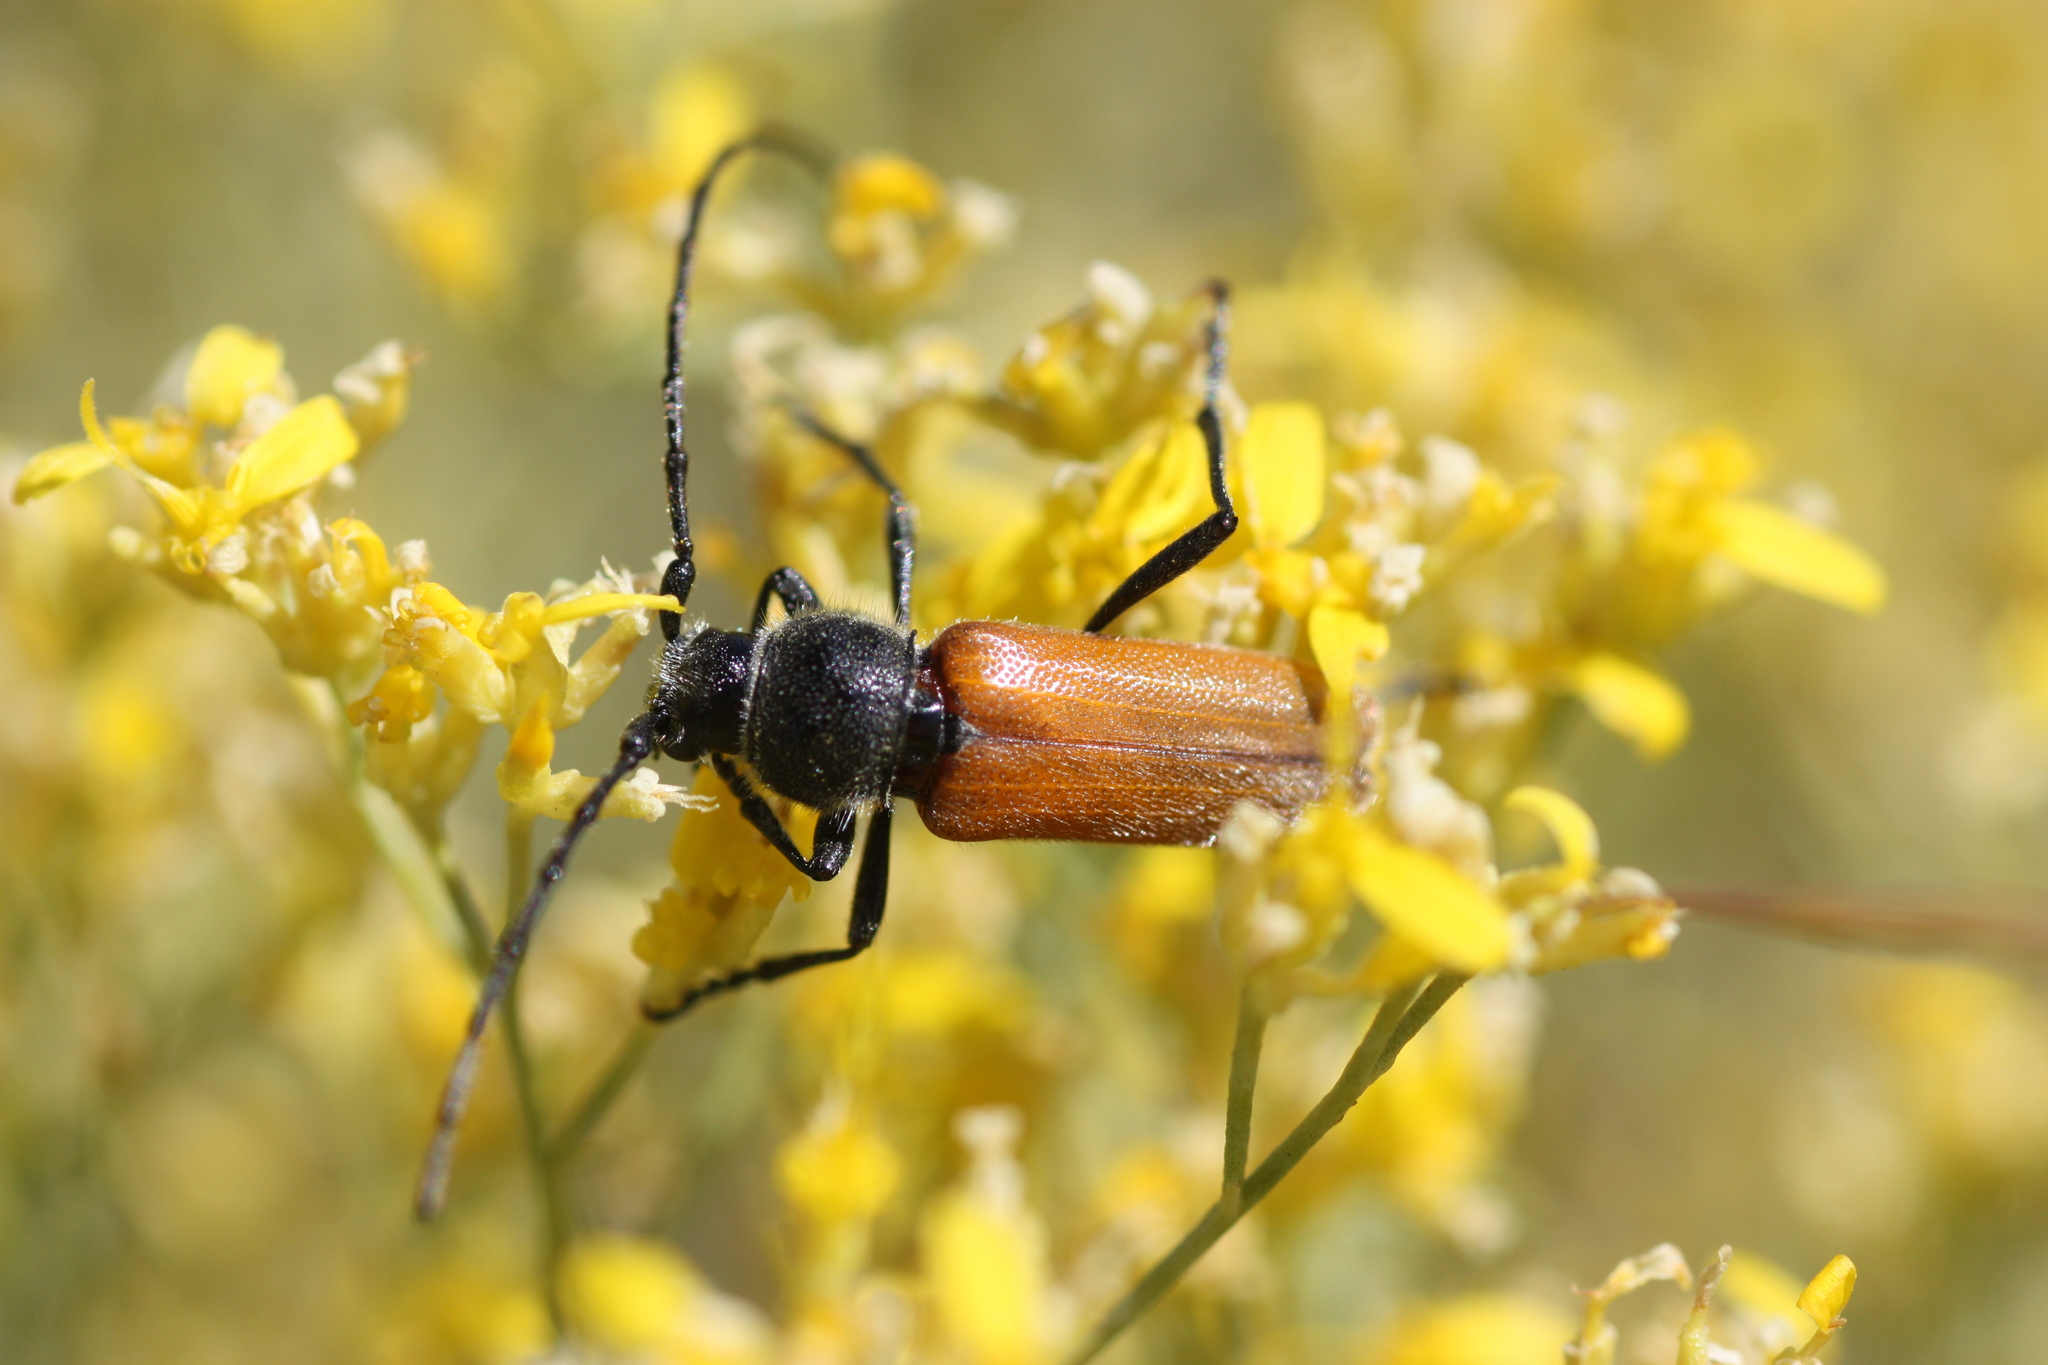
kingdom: Animalia
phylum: Arthropoda
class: Insecta
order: Coleoptera
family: Cerambycidae
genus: Crossidius
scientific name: Crossidius pulchellus
